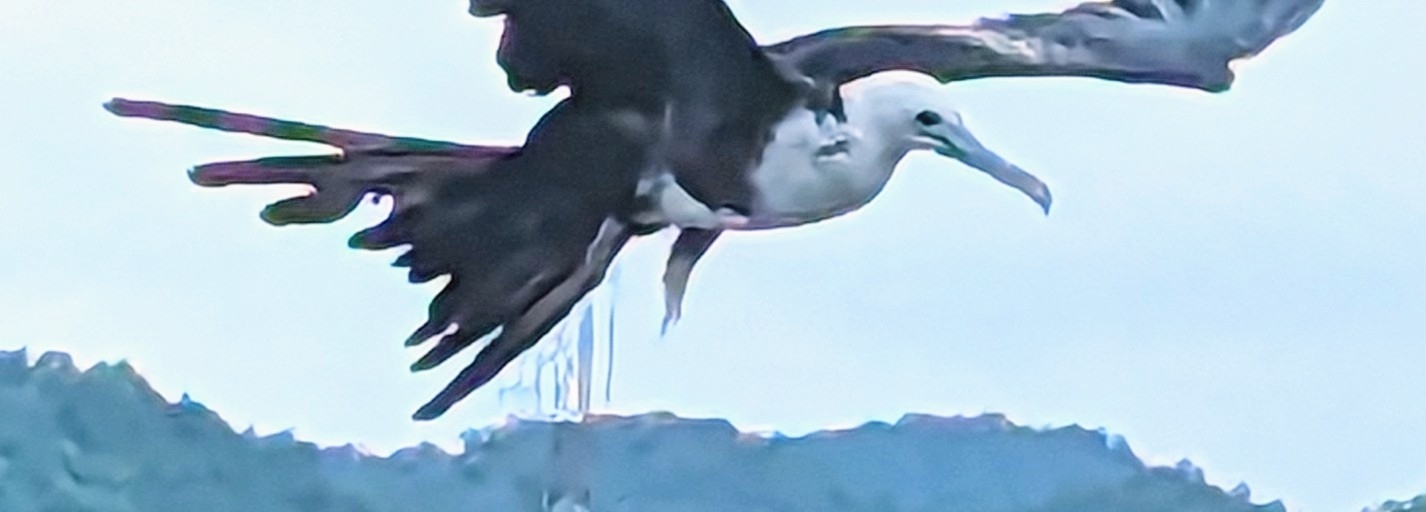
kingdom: Animalia
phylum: Chordata
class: Aves
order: Suliformes
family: Fregatidae
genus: Fregata
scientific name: Fregata magnificens
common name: Magnificent frigatebird
